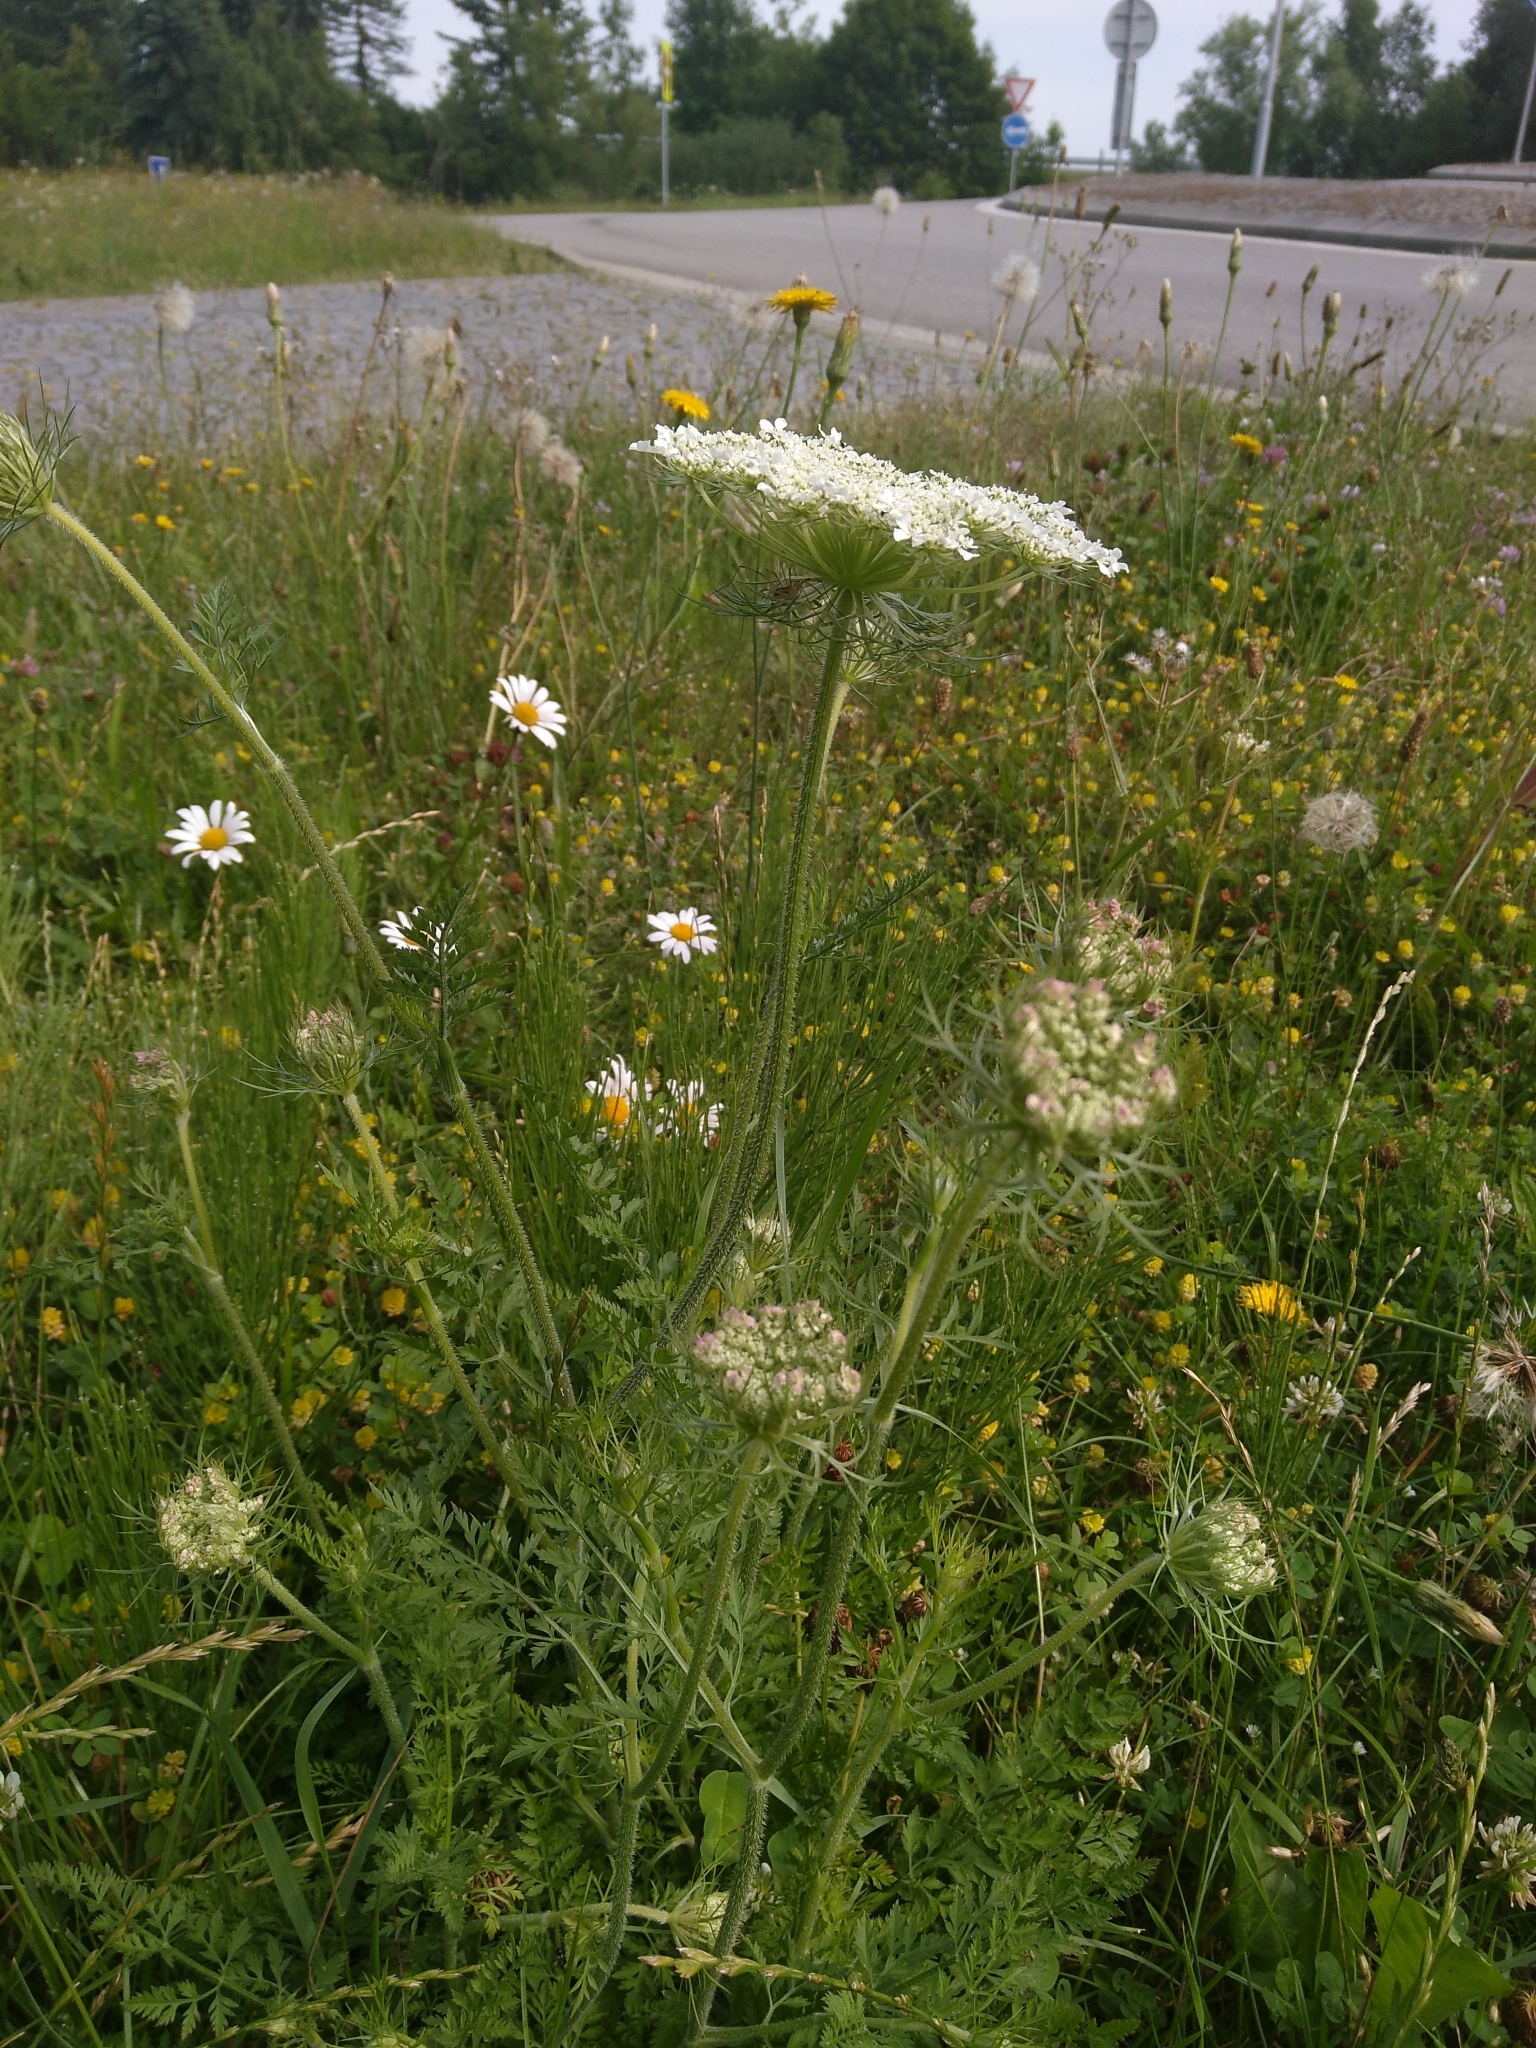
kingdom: Plantae
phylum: Tracheophyta
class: Magnoliopsida
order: Apiales
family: Apiaceae
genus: Daucus
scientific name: Daucus carota
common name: Wild carrot
